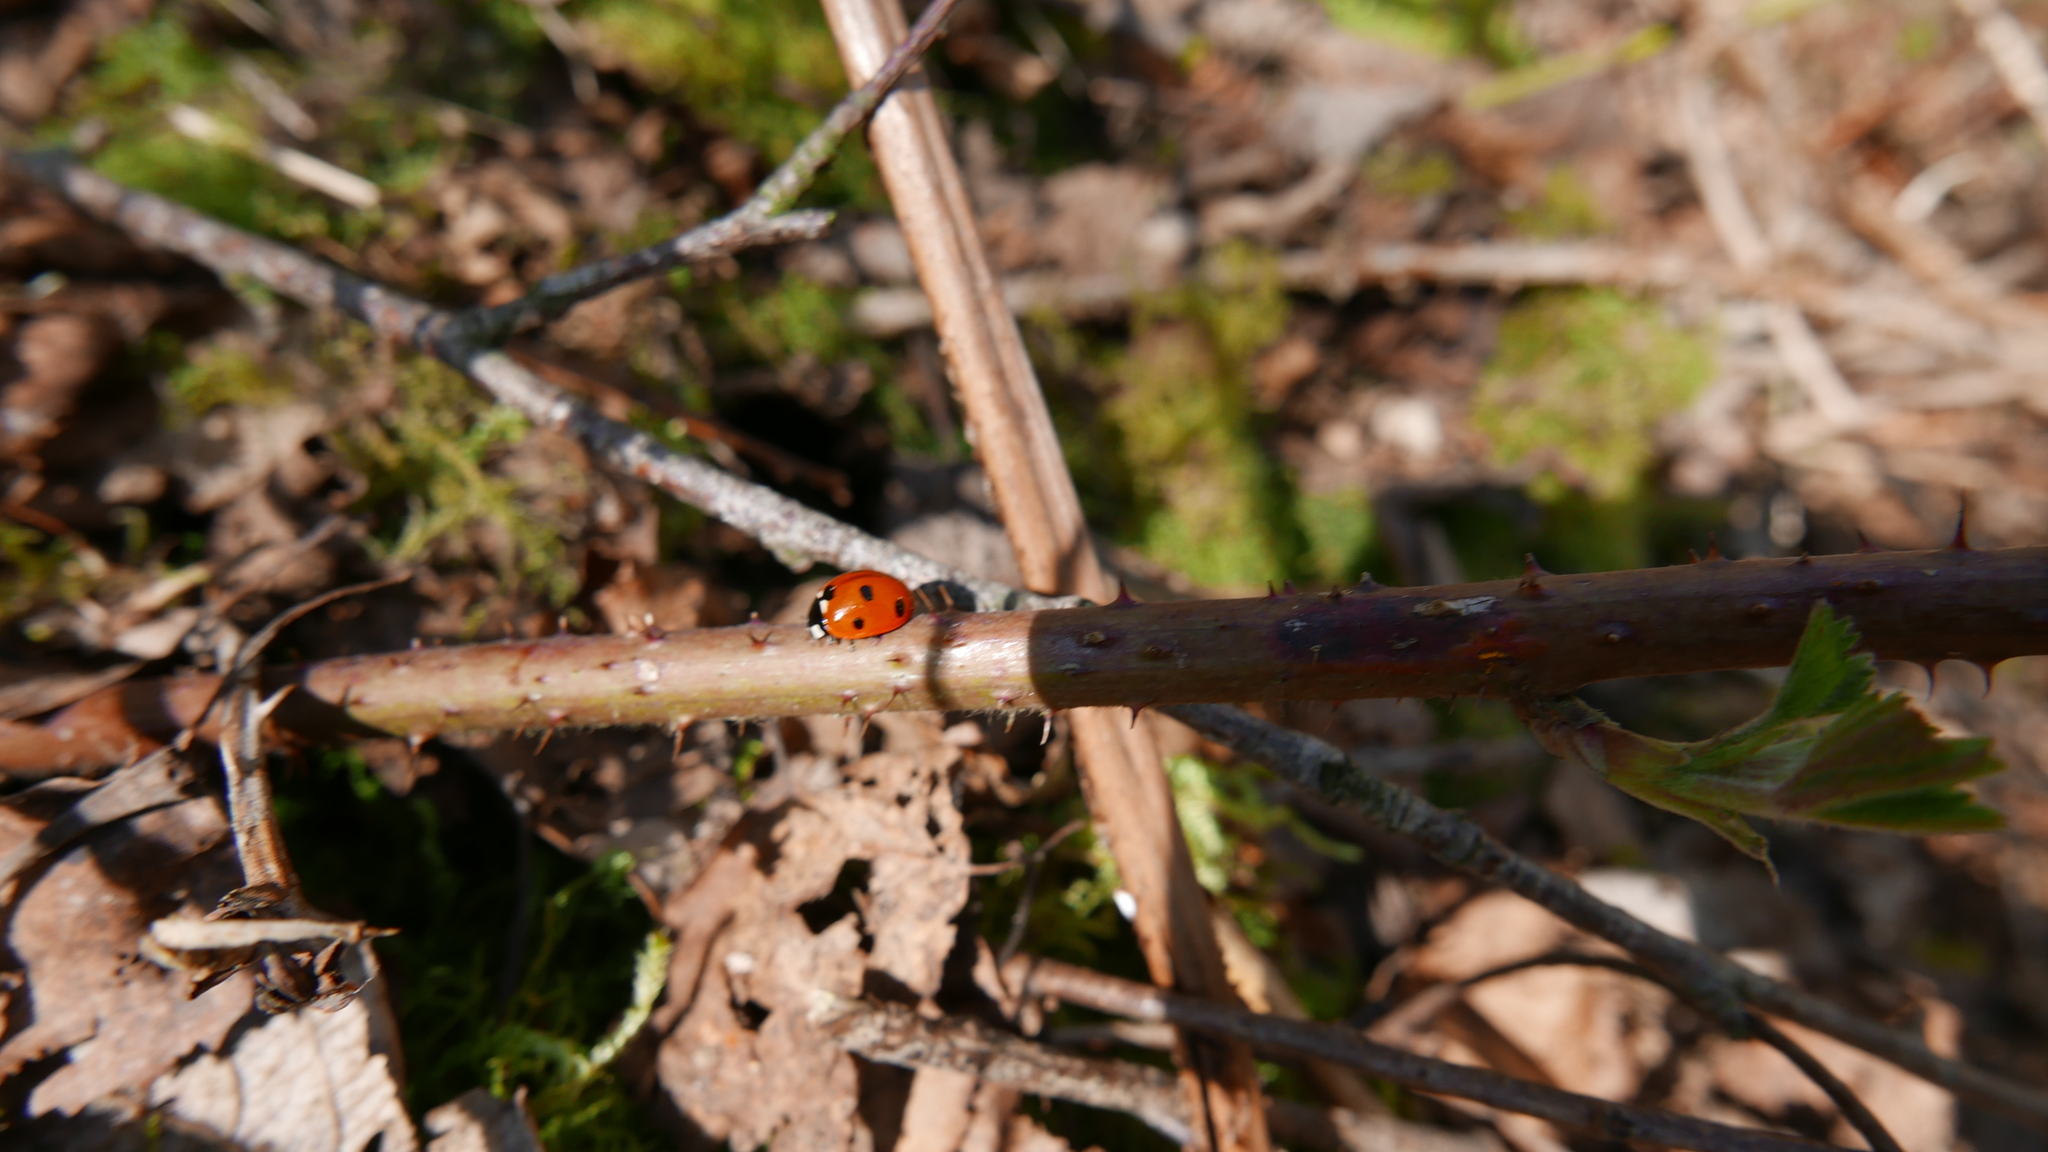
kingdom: Animalia
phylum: Arthropoda
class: Insecta
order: Coleoptera
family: Coccinellidae
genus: Coccinella
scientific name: Coccinella septempunctata
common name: Sevenspotted lady beetle
